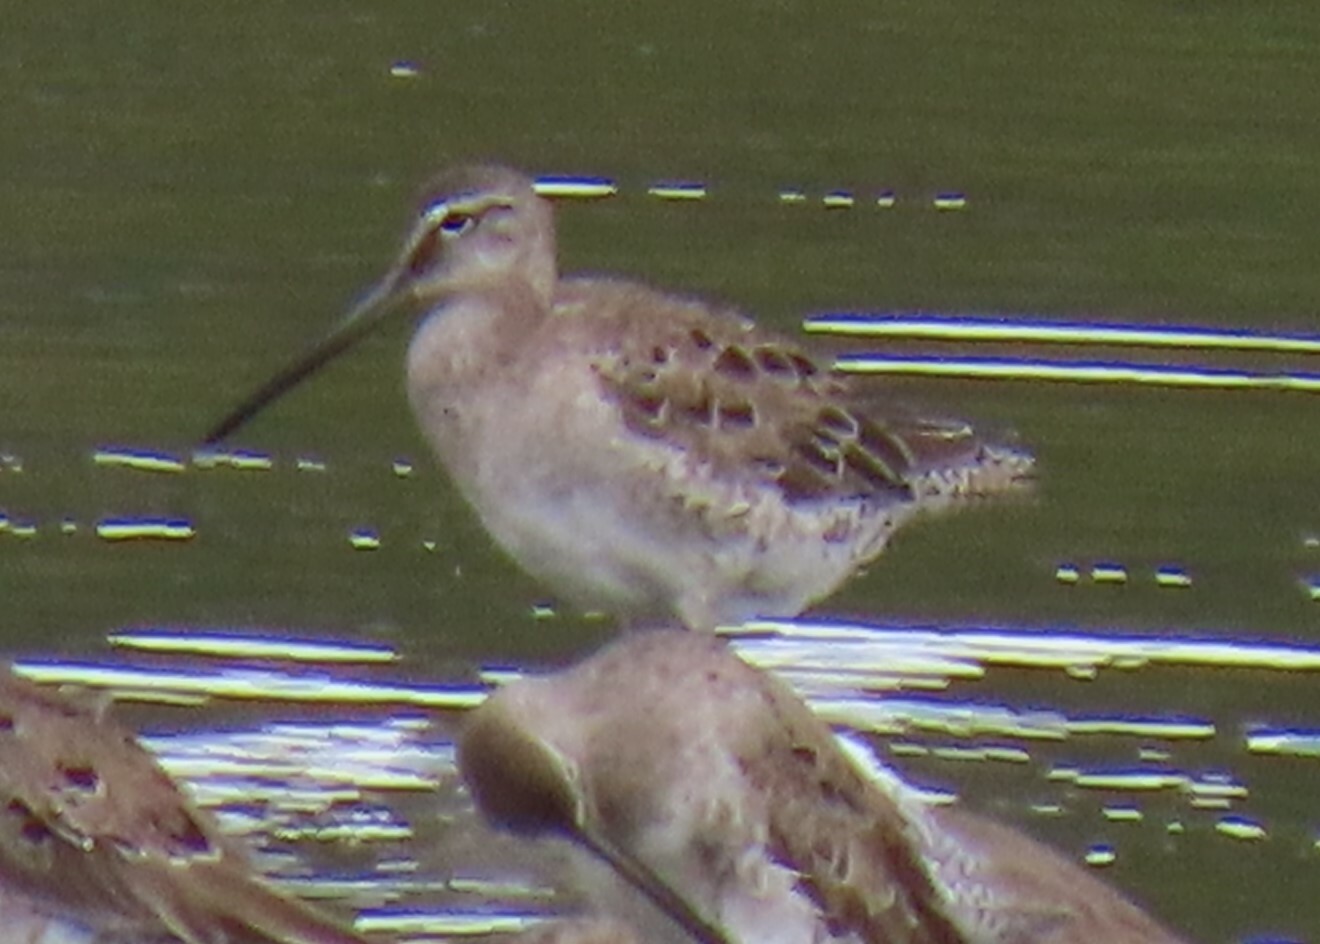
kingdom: Animalia
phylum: Chordata
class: Aves
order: Charadriiformes
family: Scolopacidae
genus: Limnodromus
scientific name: Limnodromus griseus
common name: Short-billed dowitcher
